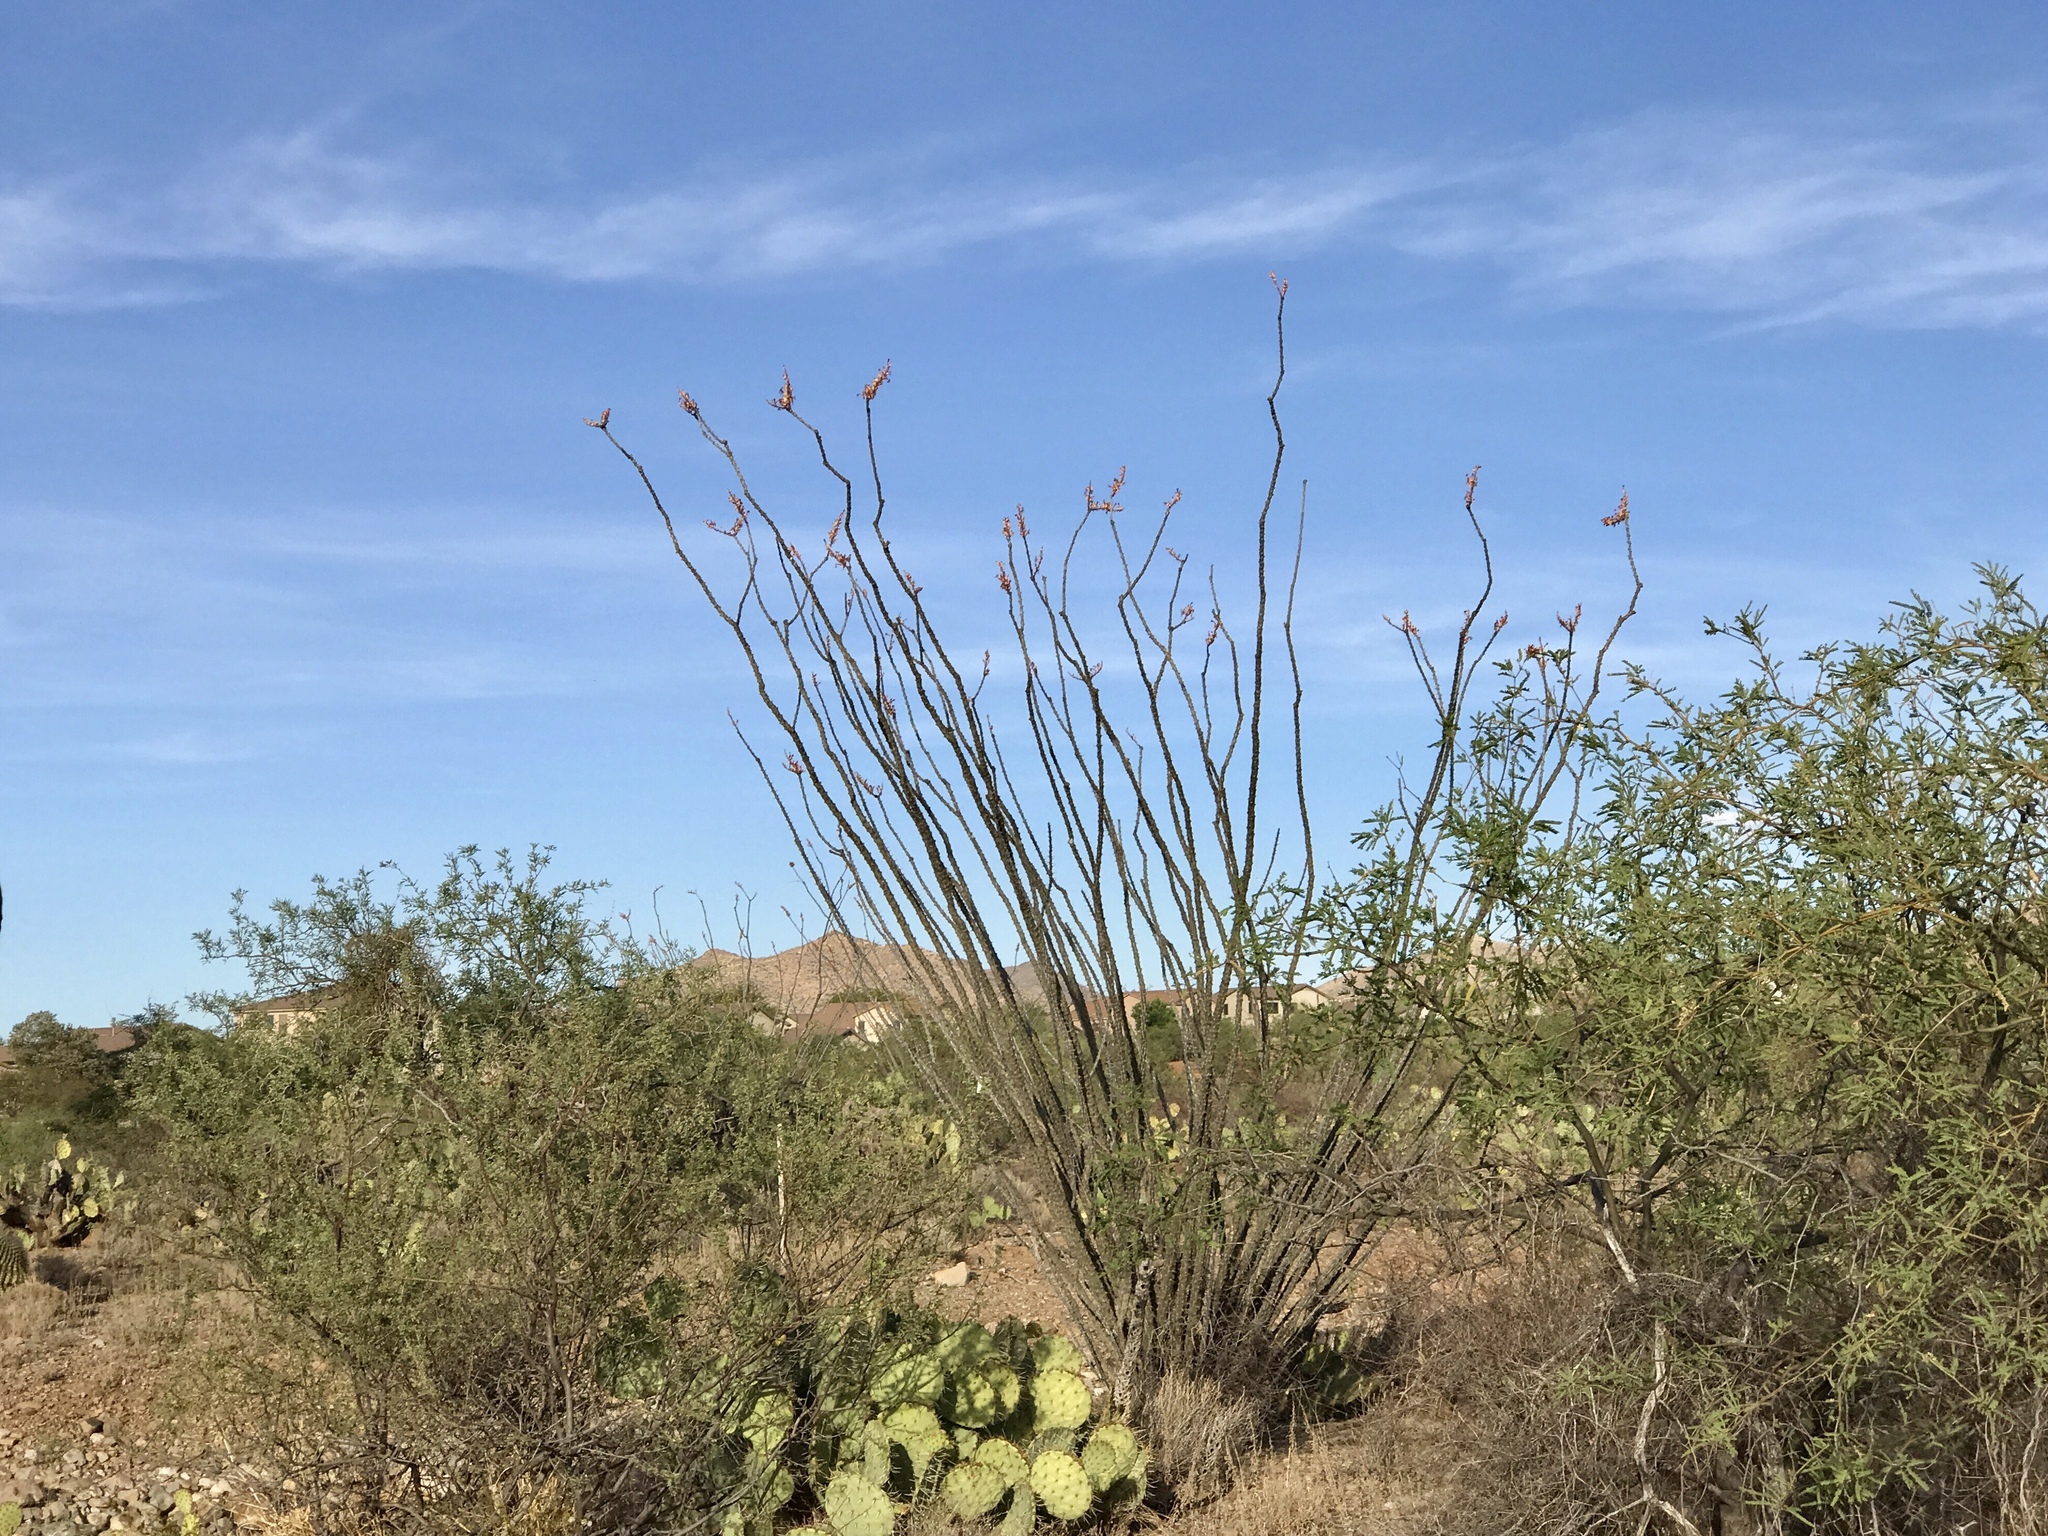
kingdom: Plantae
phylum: Tracheophyta
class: Magnoliopsida
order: Ericales
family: Fouquieriaceae
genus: Fouquieria
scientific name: Fouquieria splendens
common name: Vine-cactus
